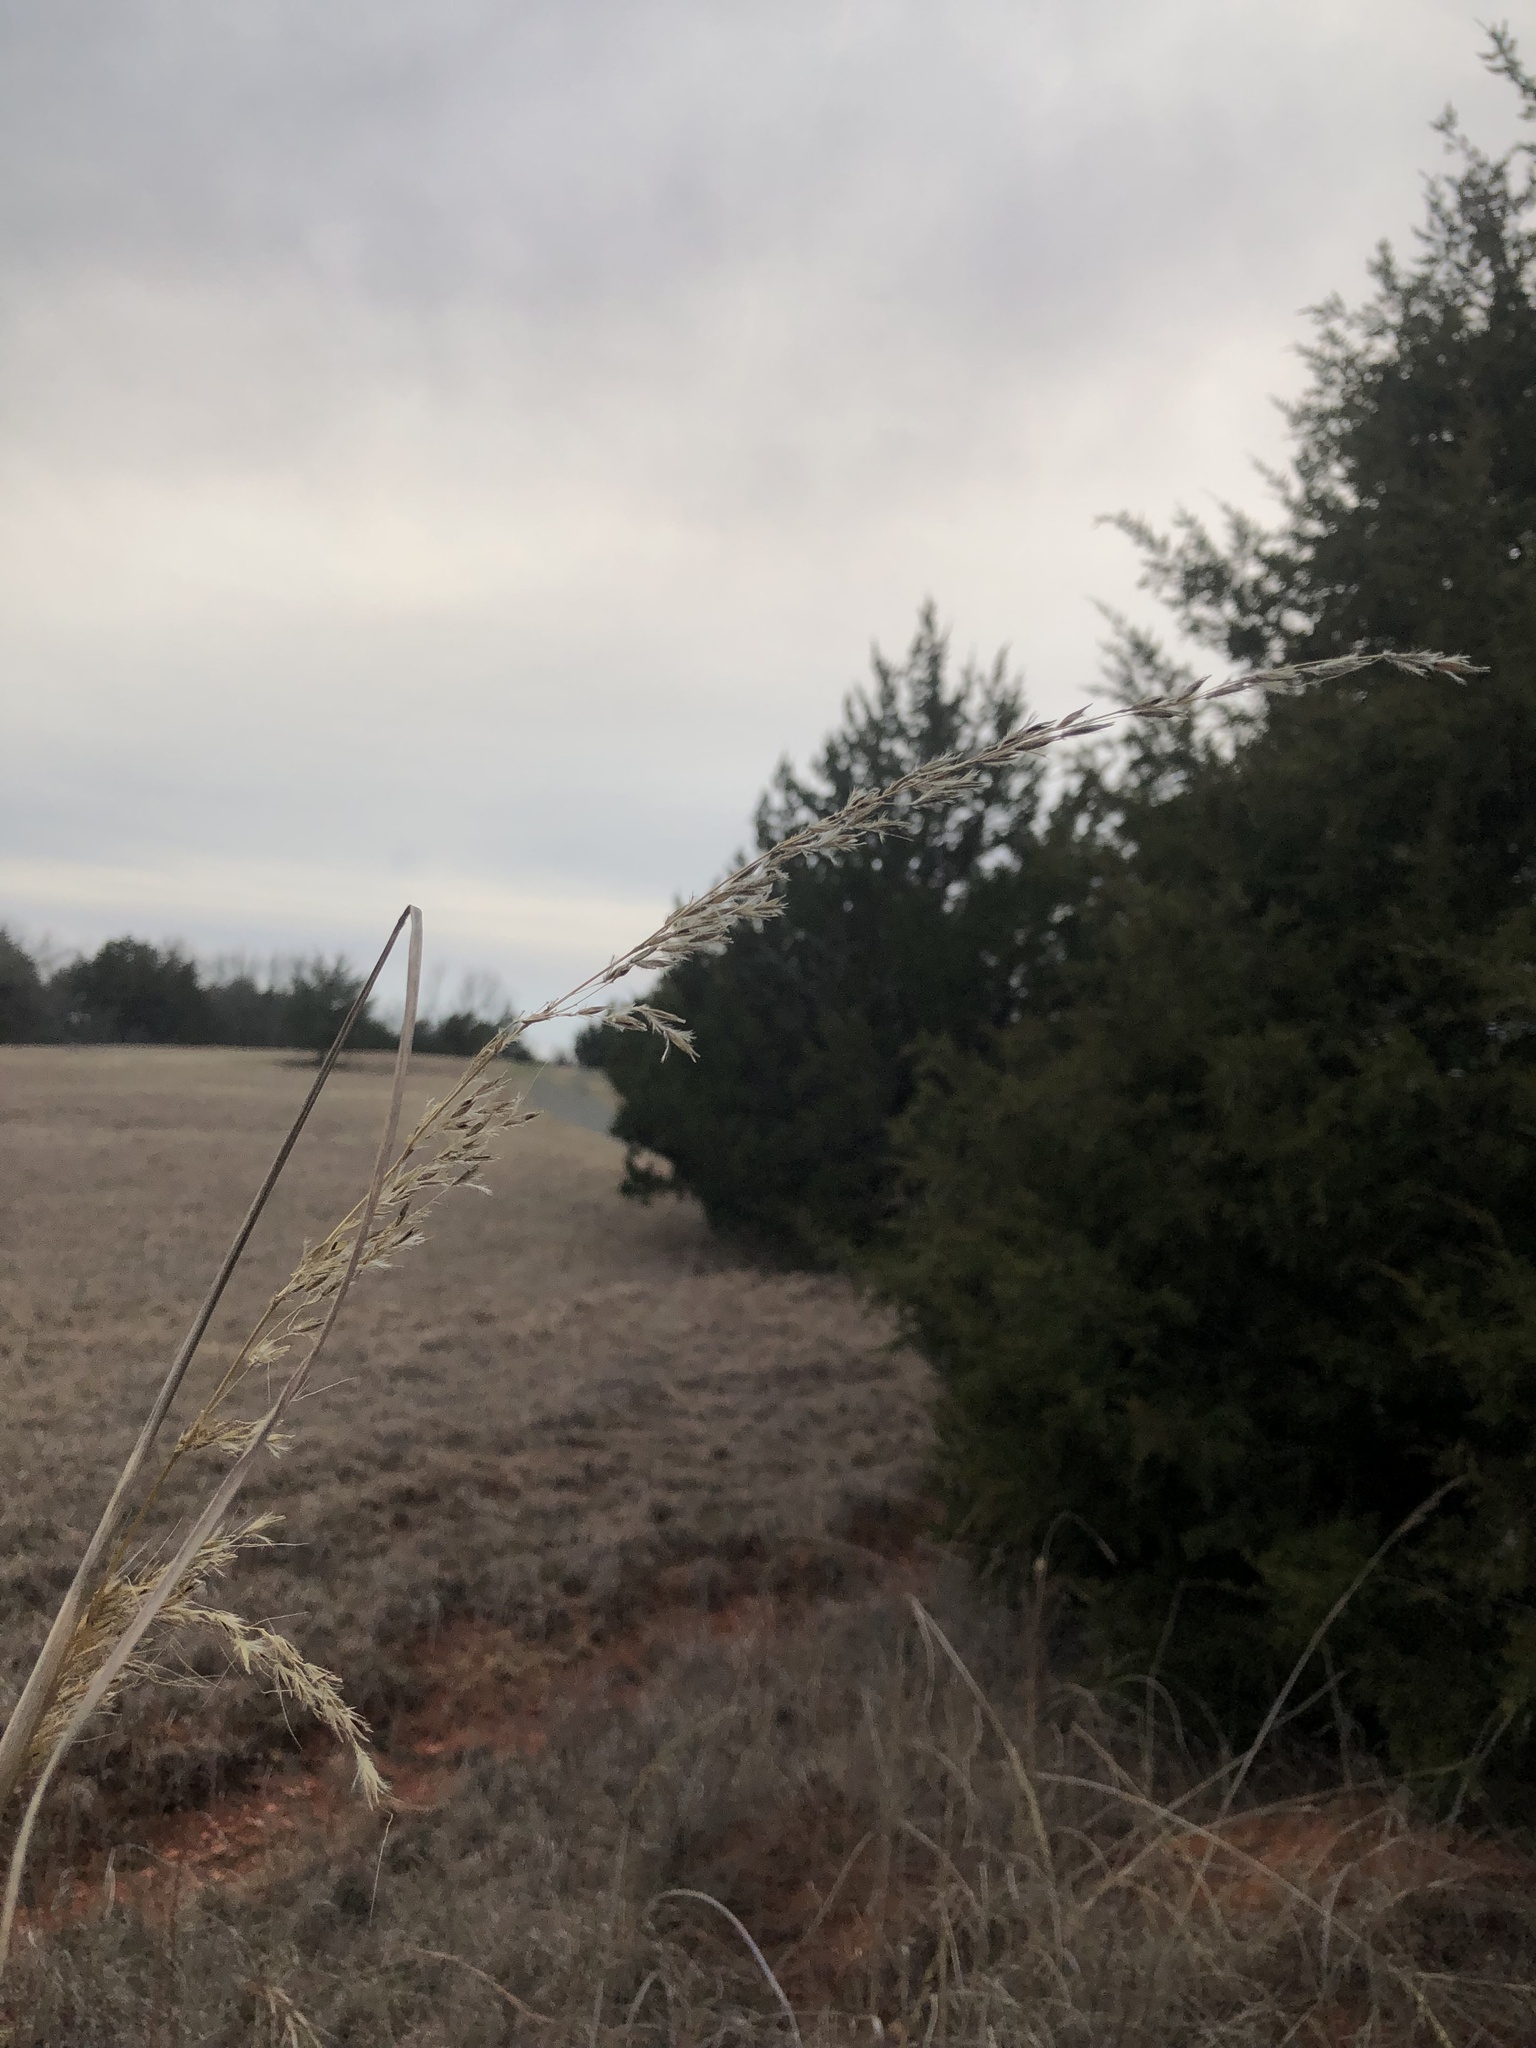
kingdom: Plantae
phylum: Tracheophyta
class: Liliopsida
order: Poales
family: Poaceae
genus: Sorghastrum
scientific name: Sorghastrum nutans
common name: Indian grass
